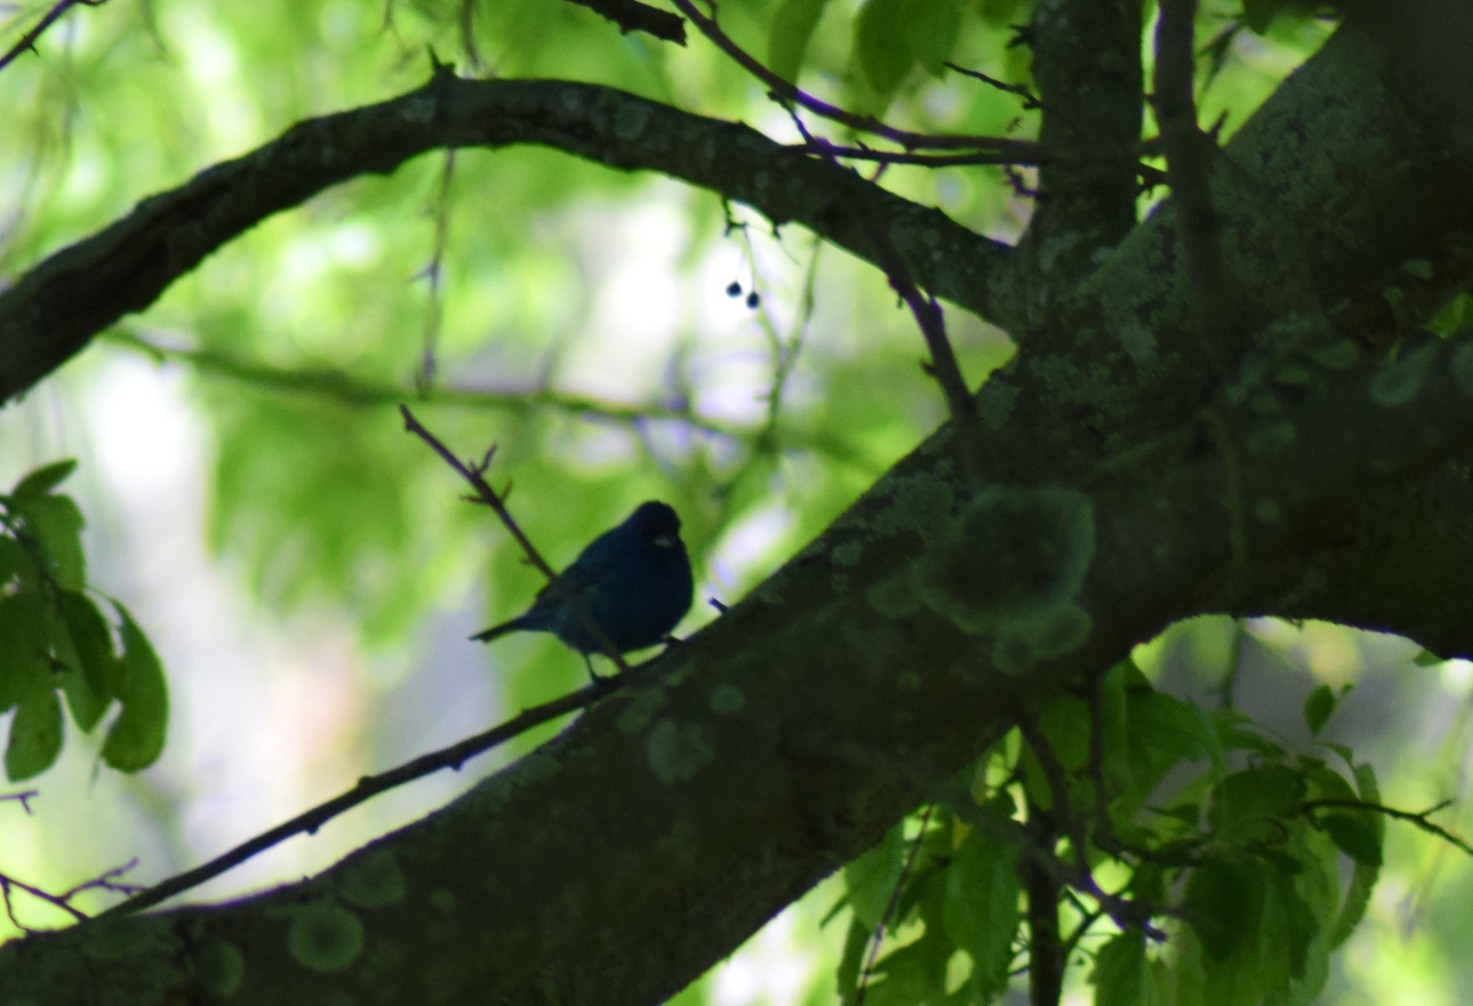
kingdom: Animalia
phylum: Chordata
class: Aves
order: Passeriformes
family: Cardinalidae
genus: Passerina
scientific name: Passerina cyanea
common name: Indigo bunting
